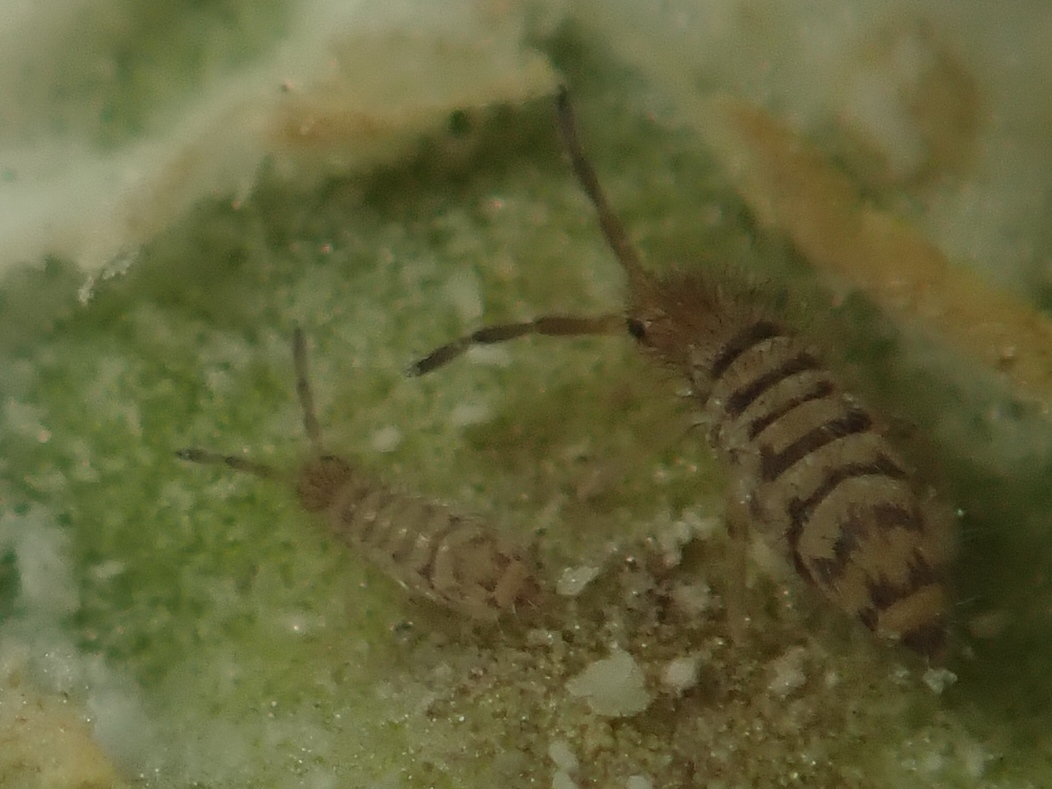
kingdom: Animalia
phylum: Arthropoda
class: Collembola
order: Entomobryomorpha
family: Entomobryidae
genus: Entomobrya
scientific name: Entomobrya multifasciata
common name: Springtail
